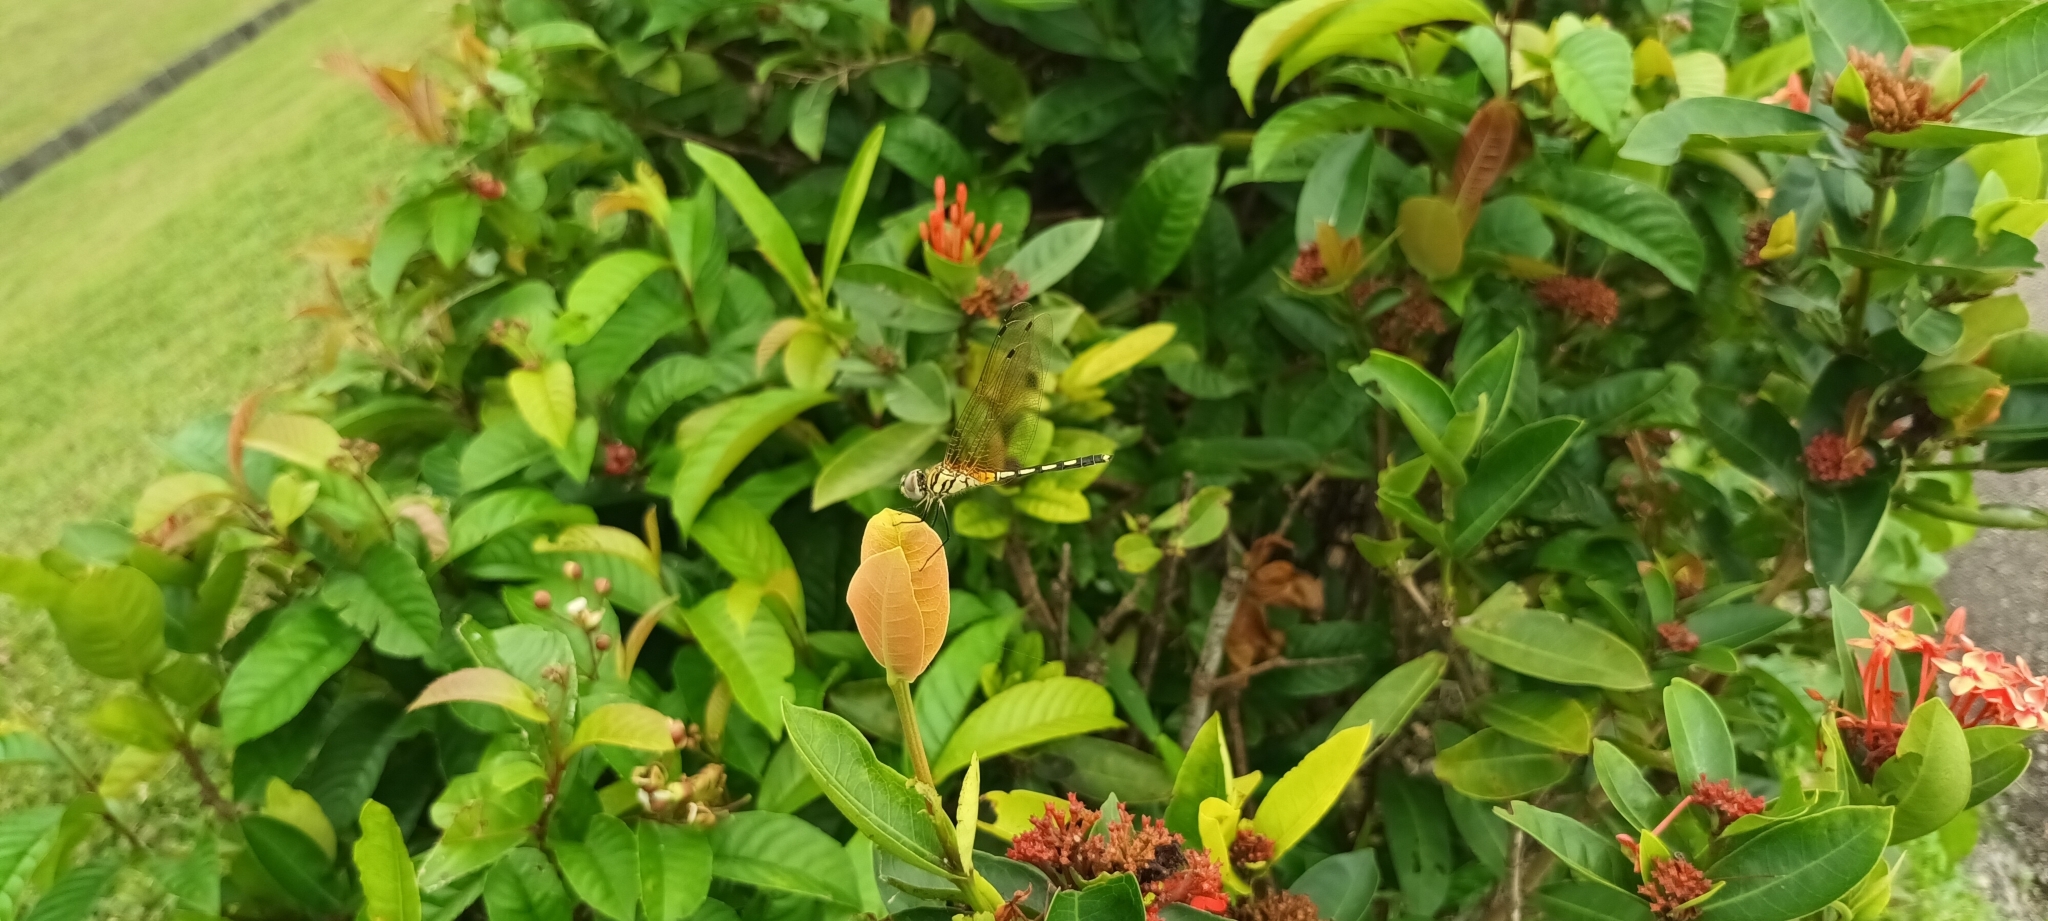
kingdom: Animalia
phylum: Arthropoda
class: Insecta
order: Odonata
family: Libellulidae
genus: Trithemis
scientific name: Trithemis pallidinervis
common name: Dancing dropwing
